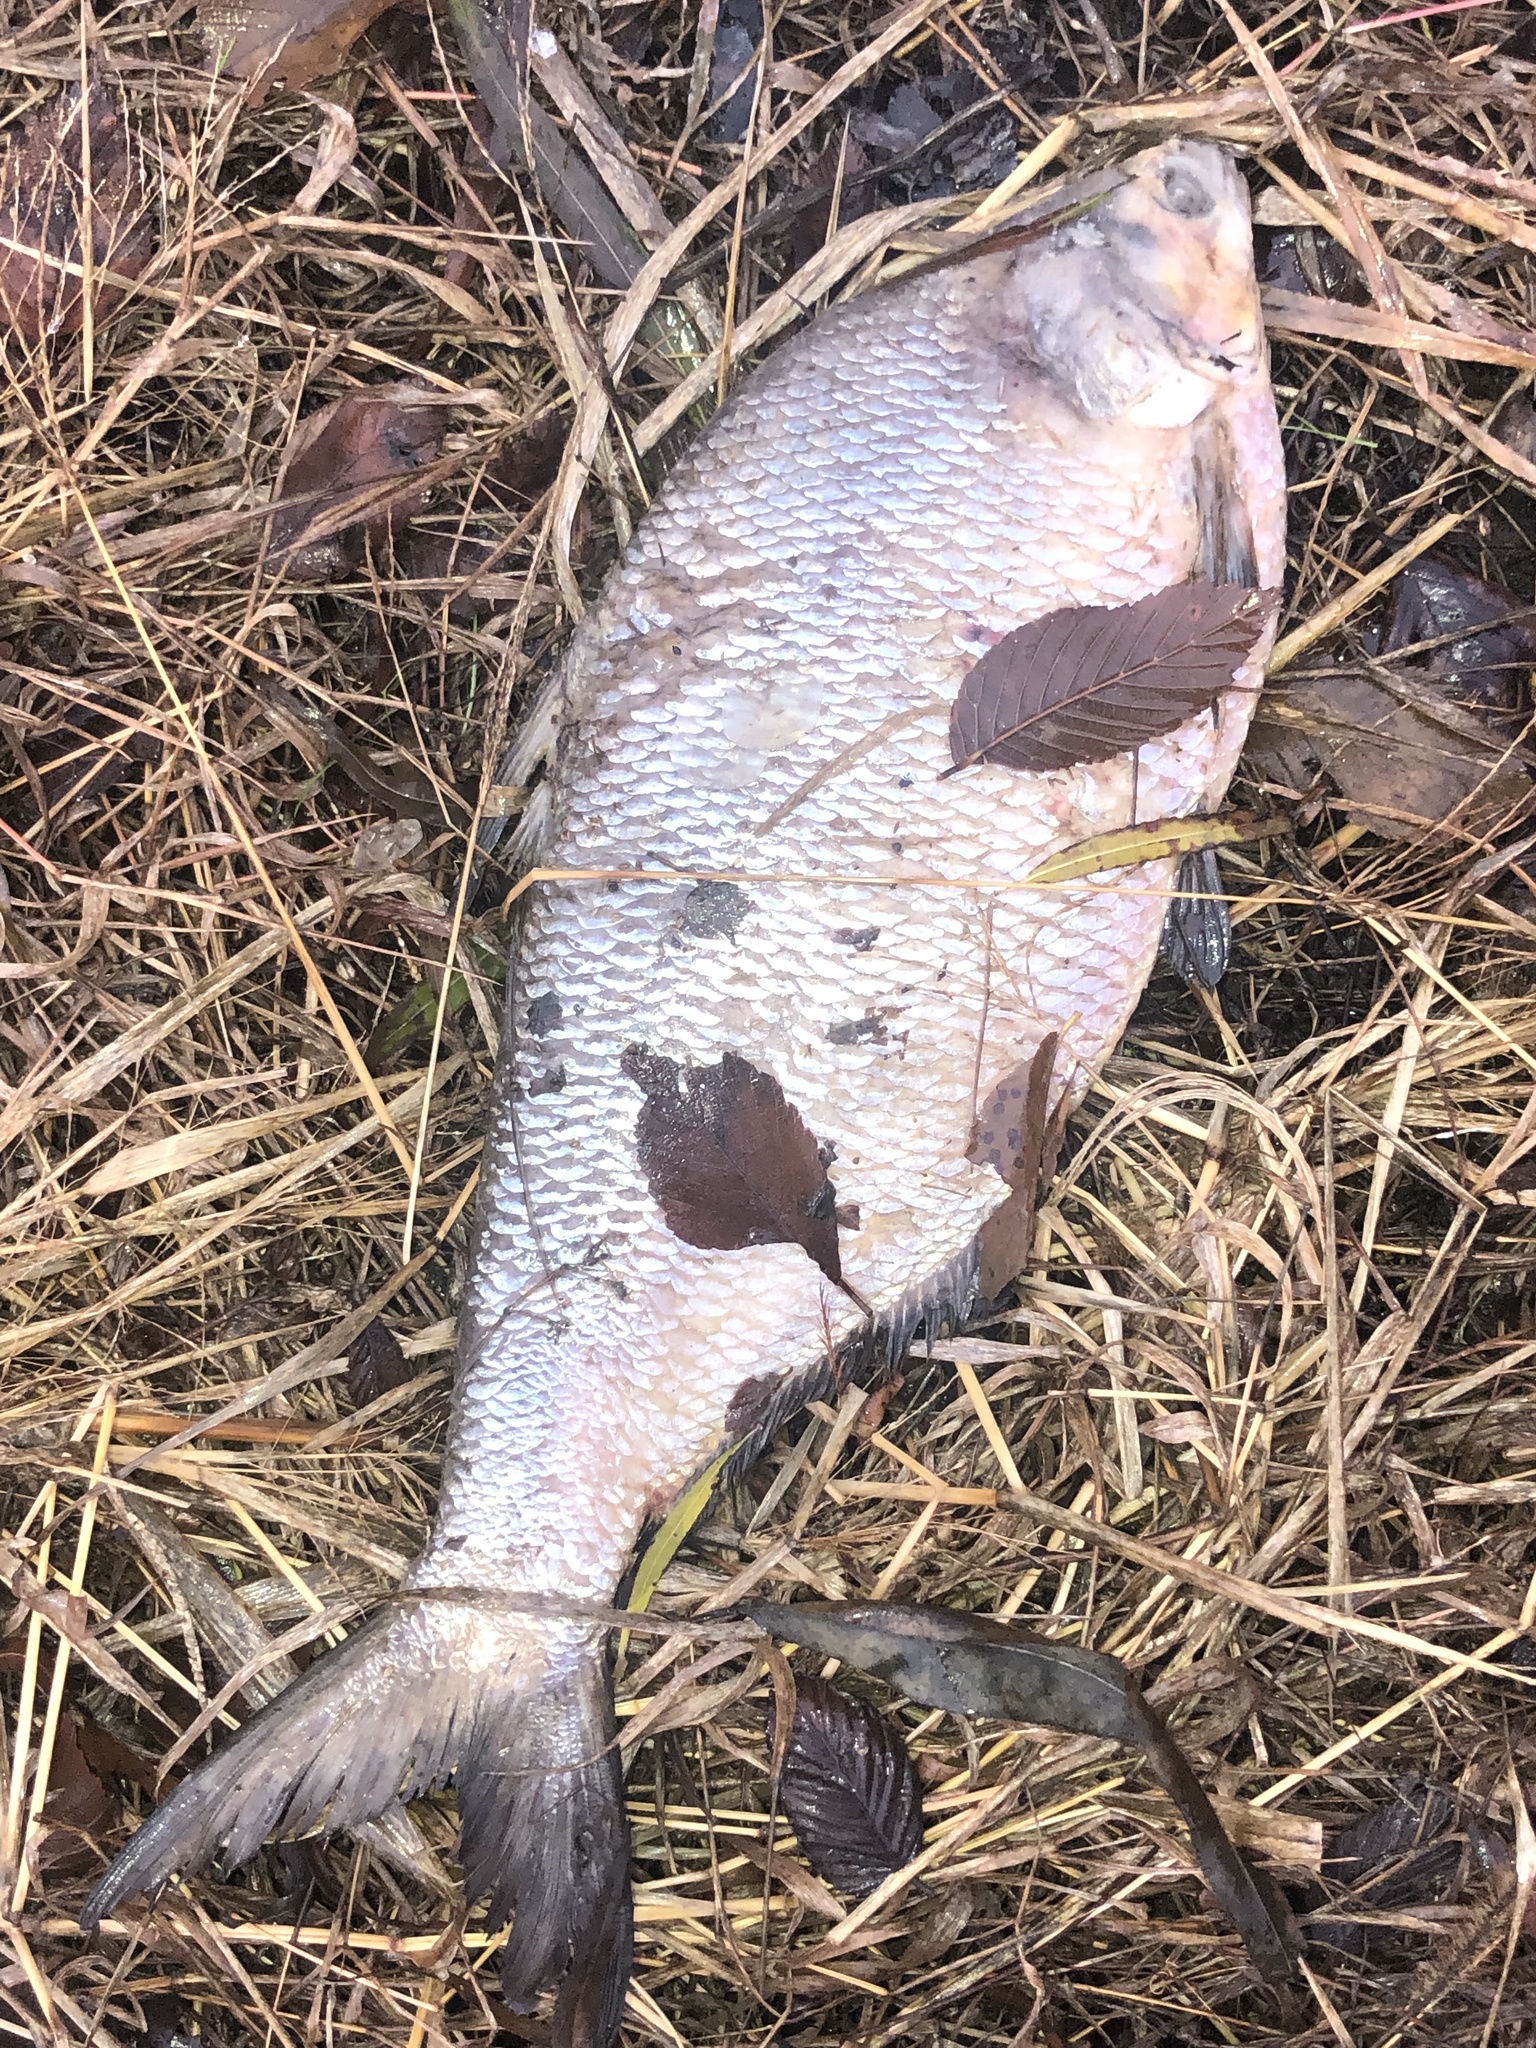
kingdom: Animalia
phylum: Chordata
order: Clupeiformes
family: Clupeidae
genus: Dorosoma
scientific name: Dorosoma cepedianum
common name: Gizzard shad
